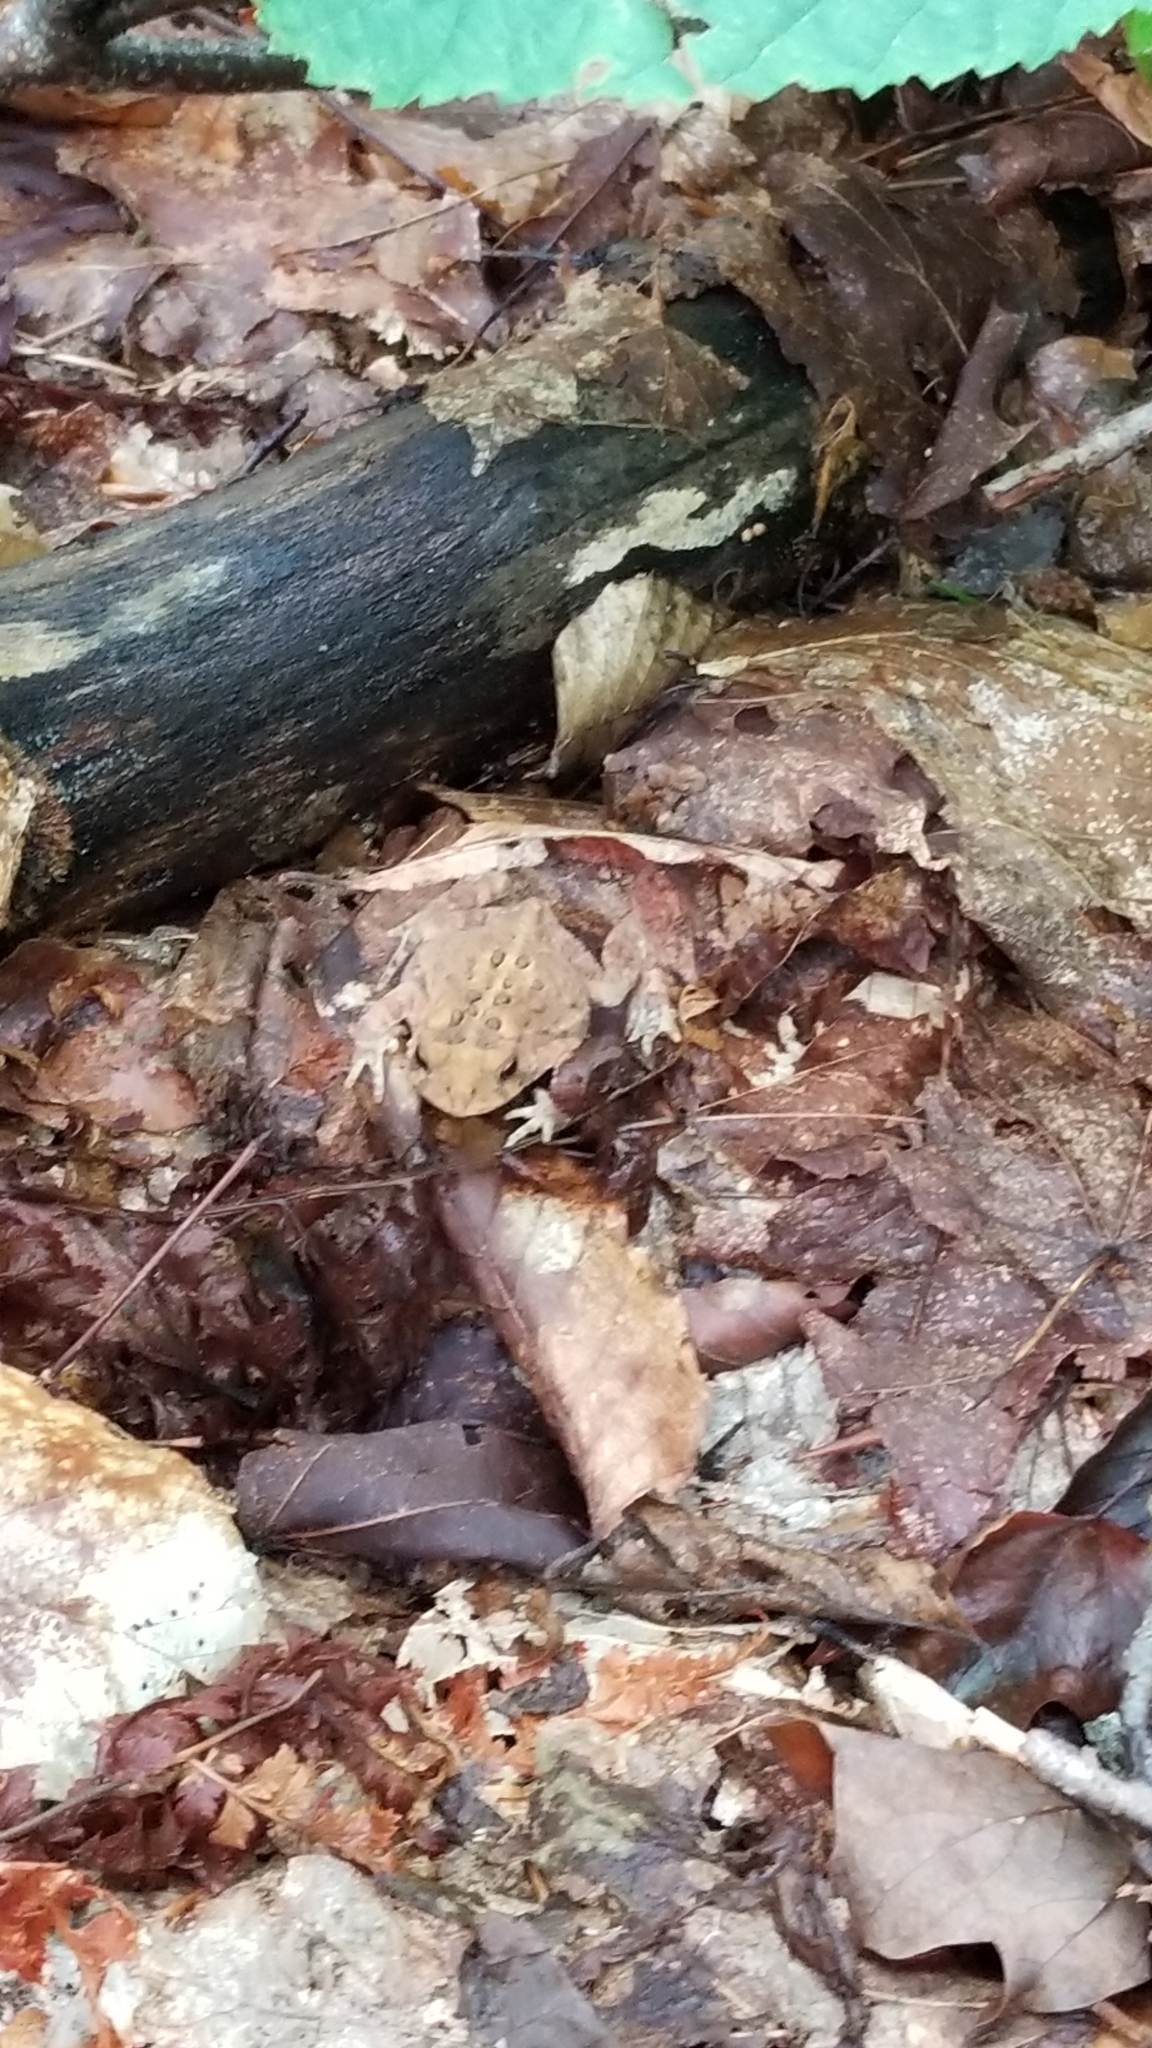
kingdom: Animalia
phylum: Chordata
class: Amphibia
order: Anura
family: Bufonidae
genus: Anaxyrus
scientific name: Anaxyrus americanus
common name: American toad
